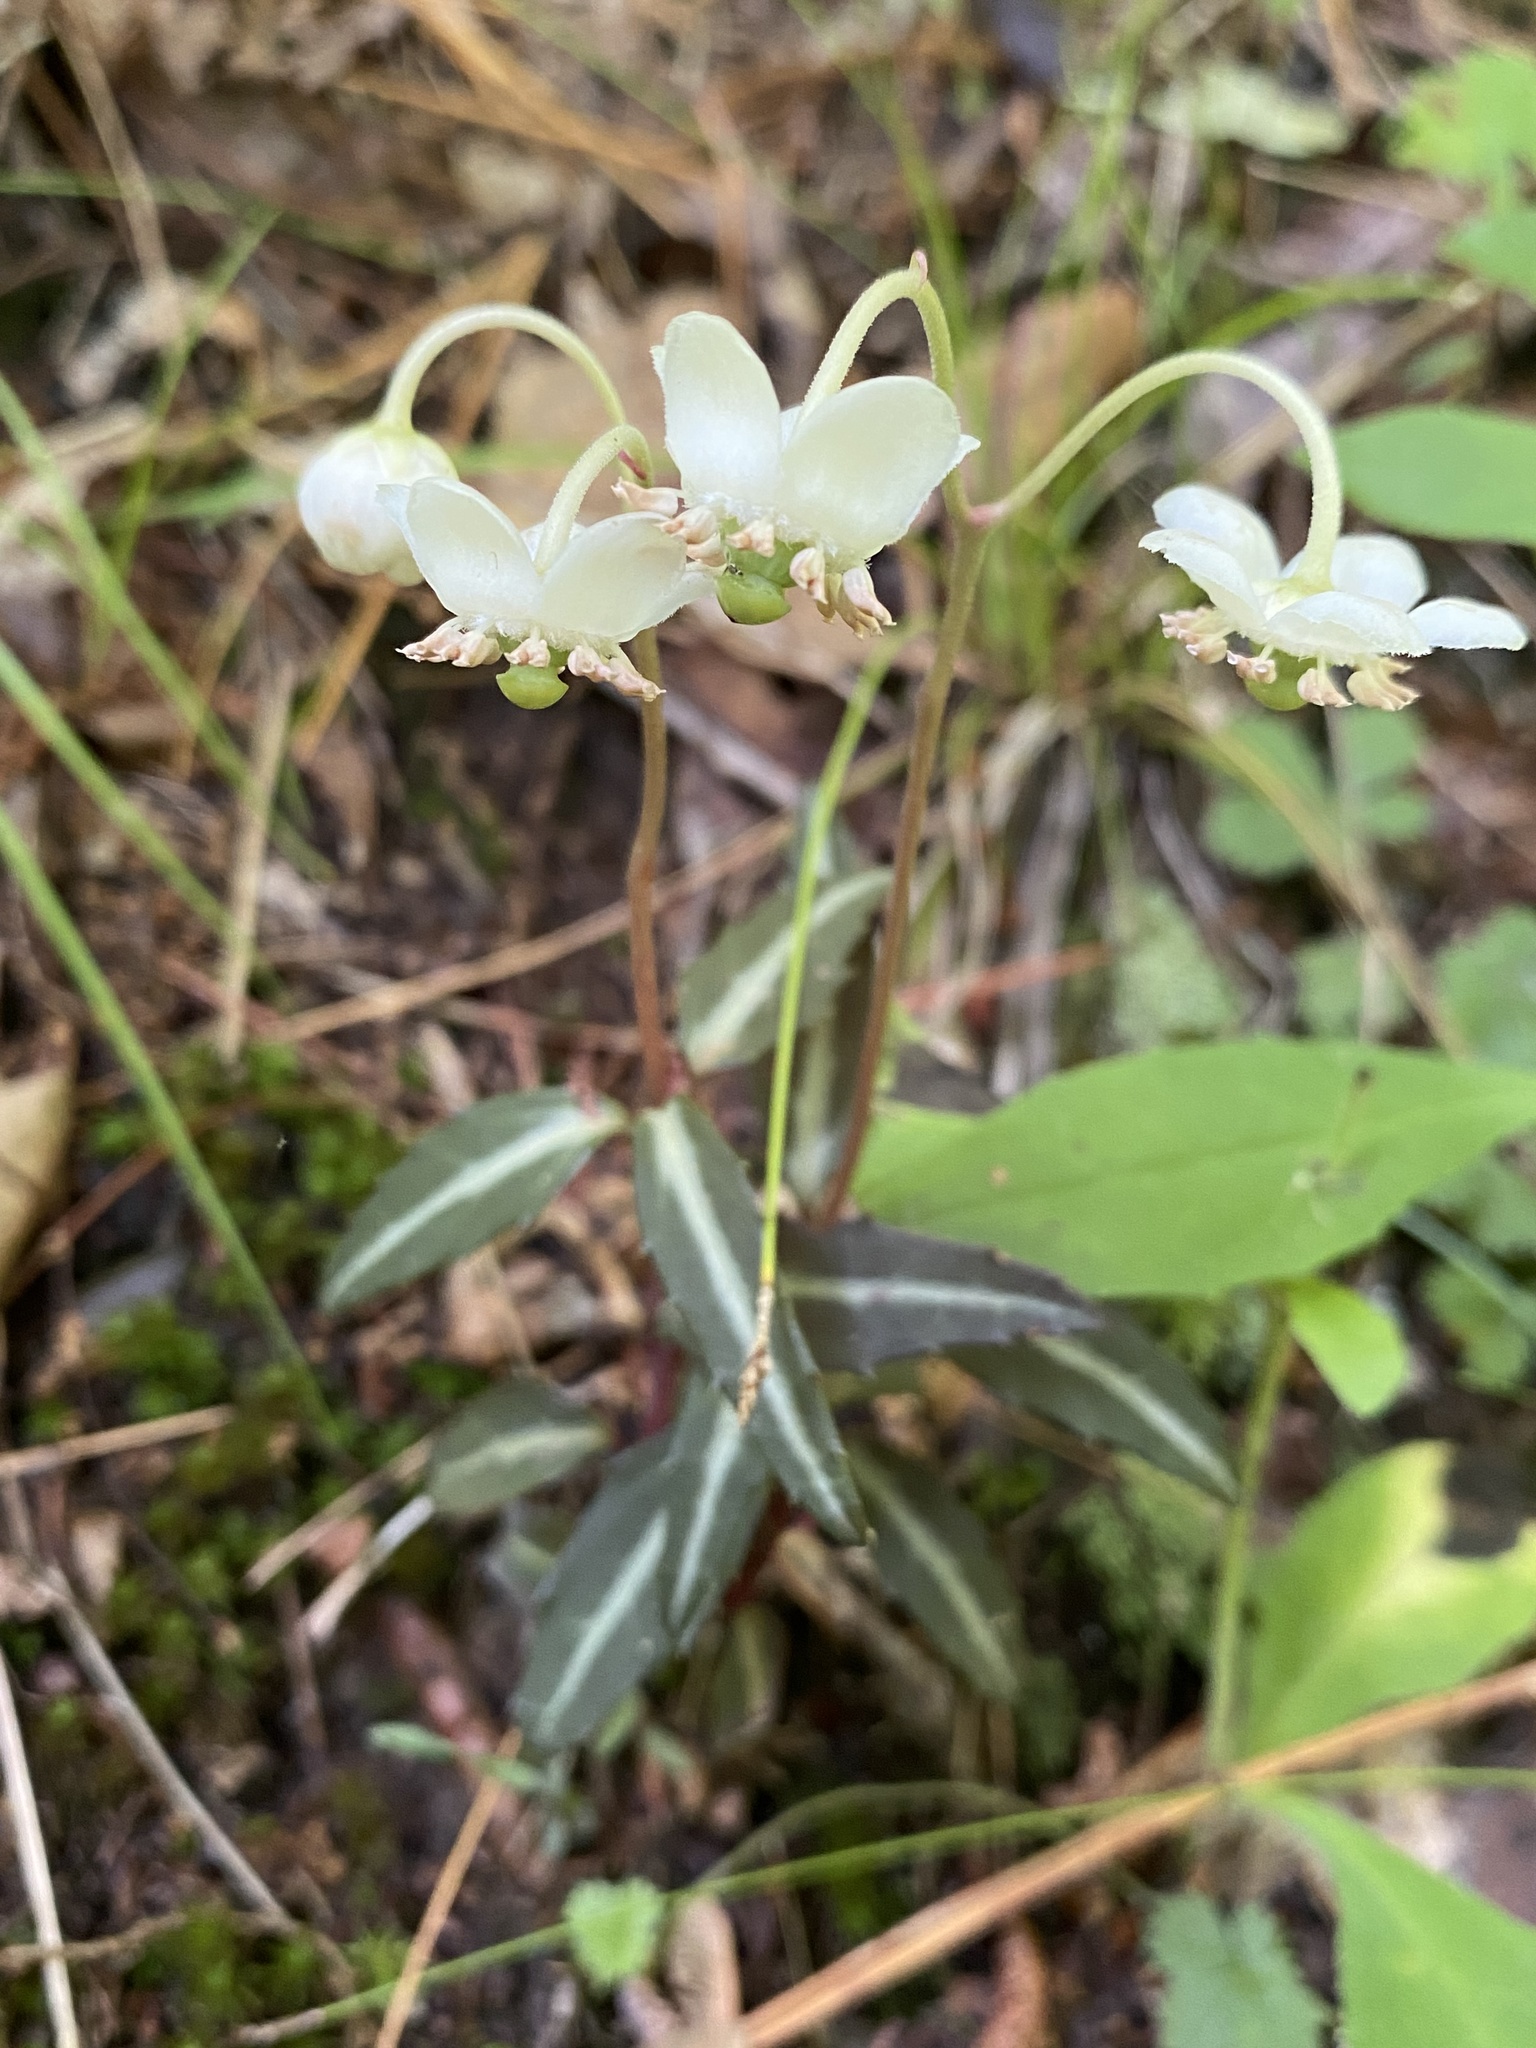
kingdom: Plantae
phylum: Tracheophyta
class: Magnoliopsida
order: Ericales
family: Ericaceae
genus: Chimaphila
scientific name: Chimaphila maculata
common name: Spotted pipsissewa
